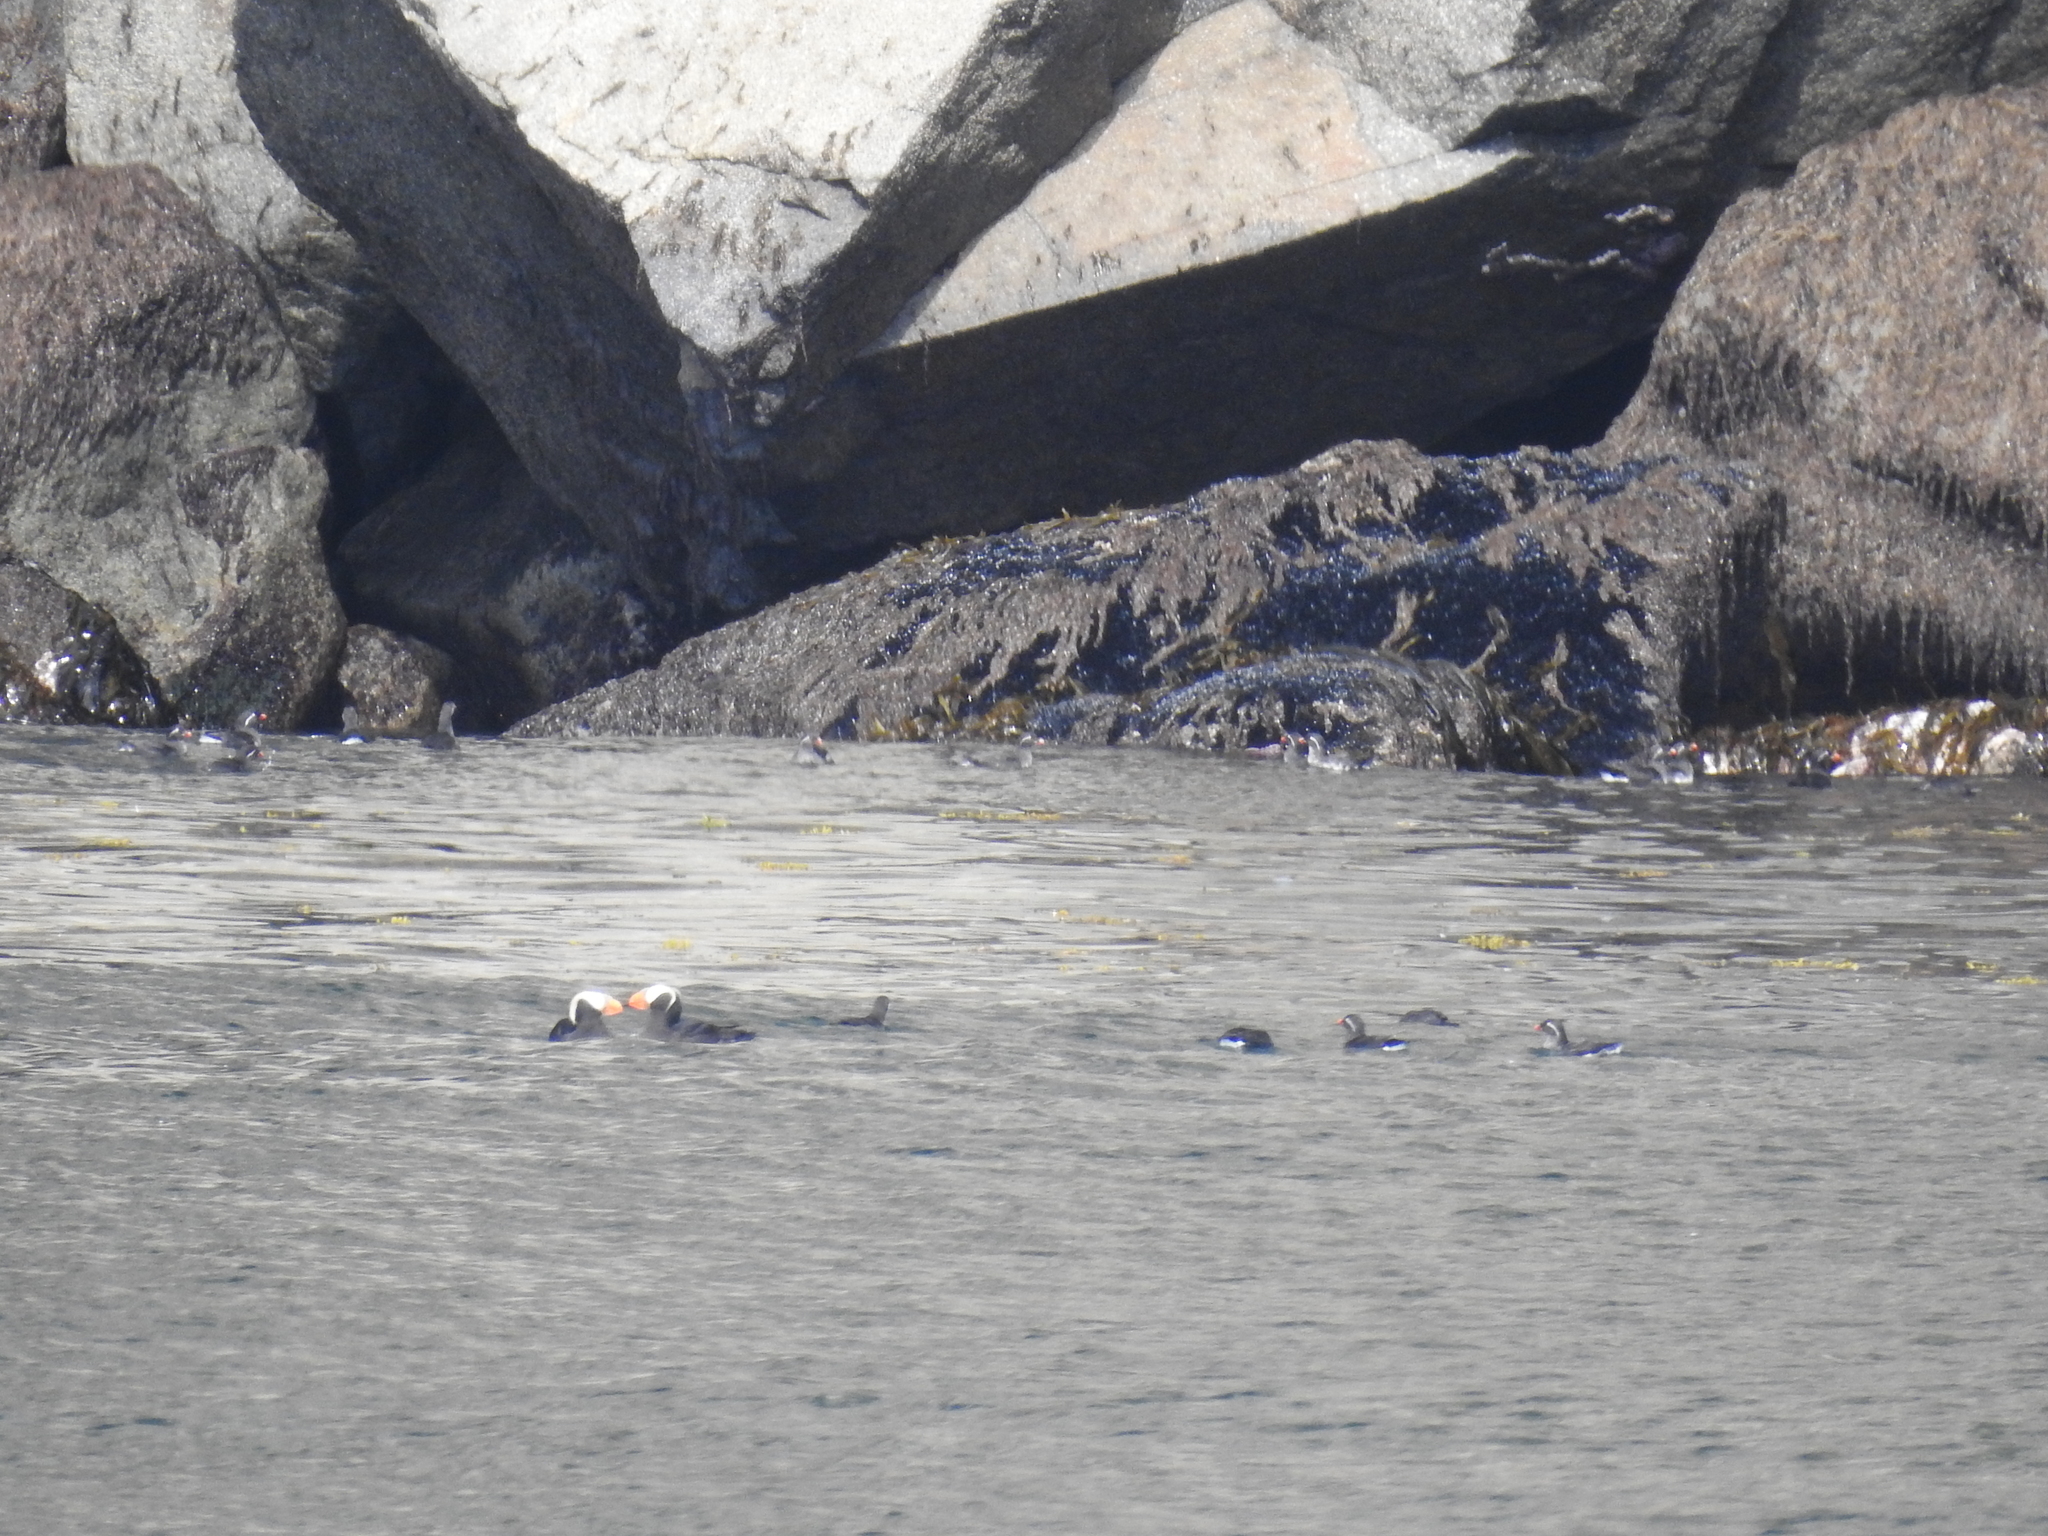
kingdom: Animalia
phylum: Chordata
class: Aves
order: Charadriiformes
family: Alcidae
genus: Aethia
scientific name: Aethia psittacula
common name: Parakeet auklet
